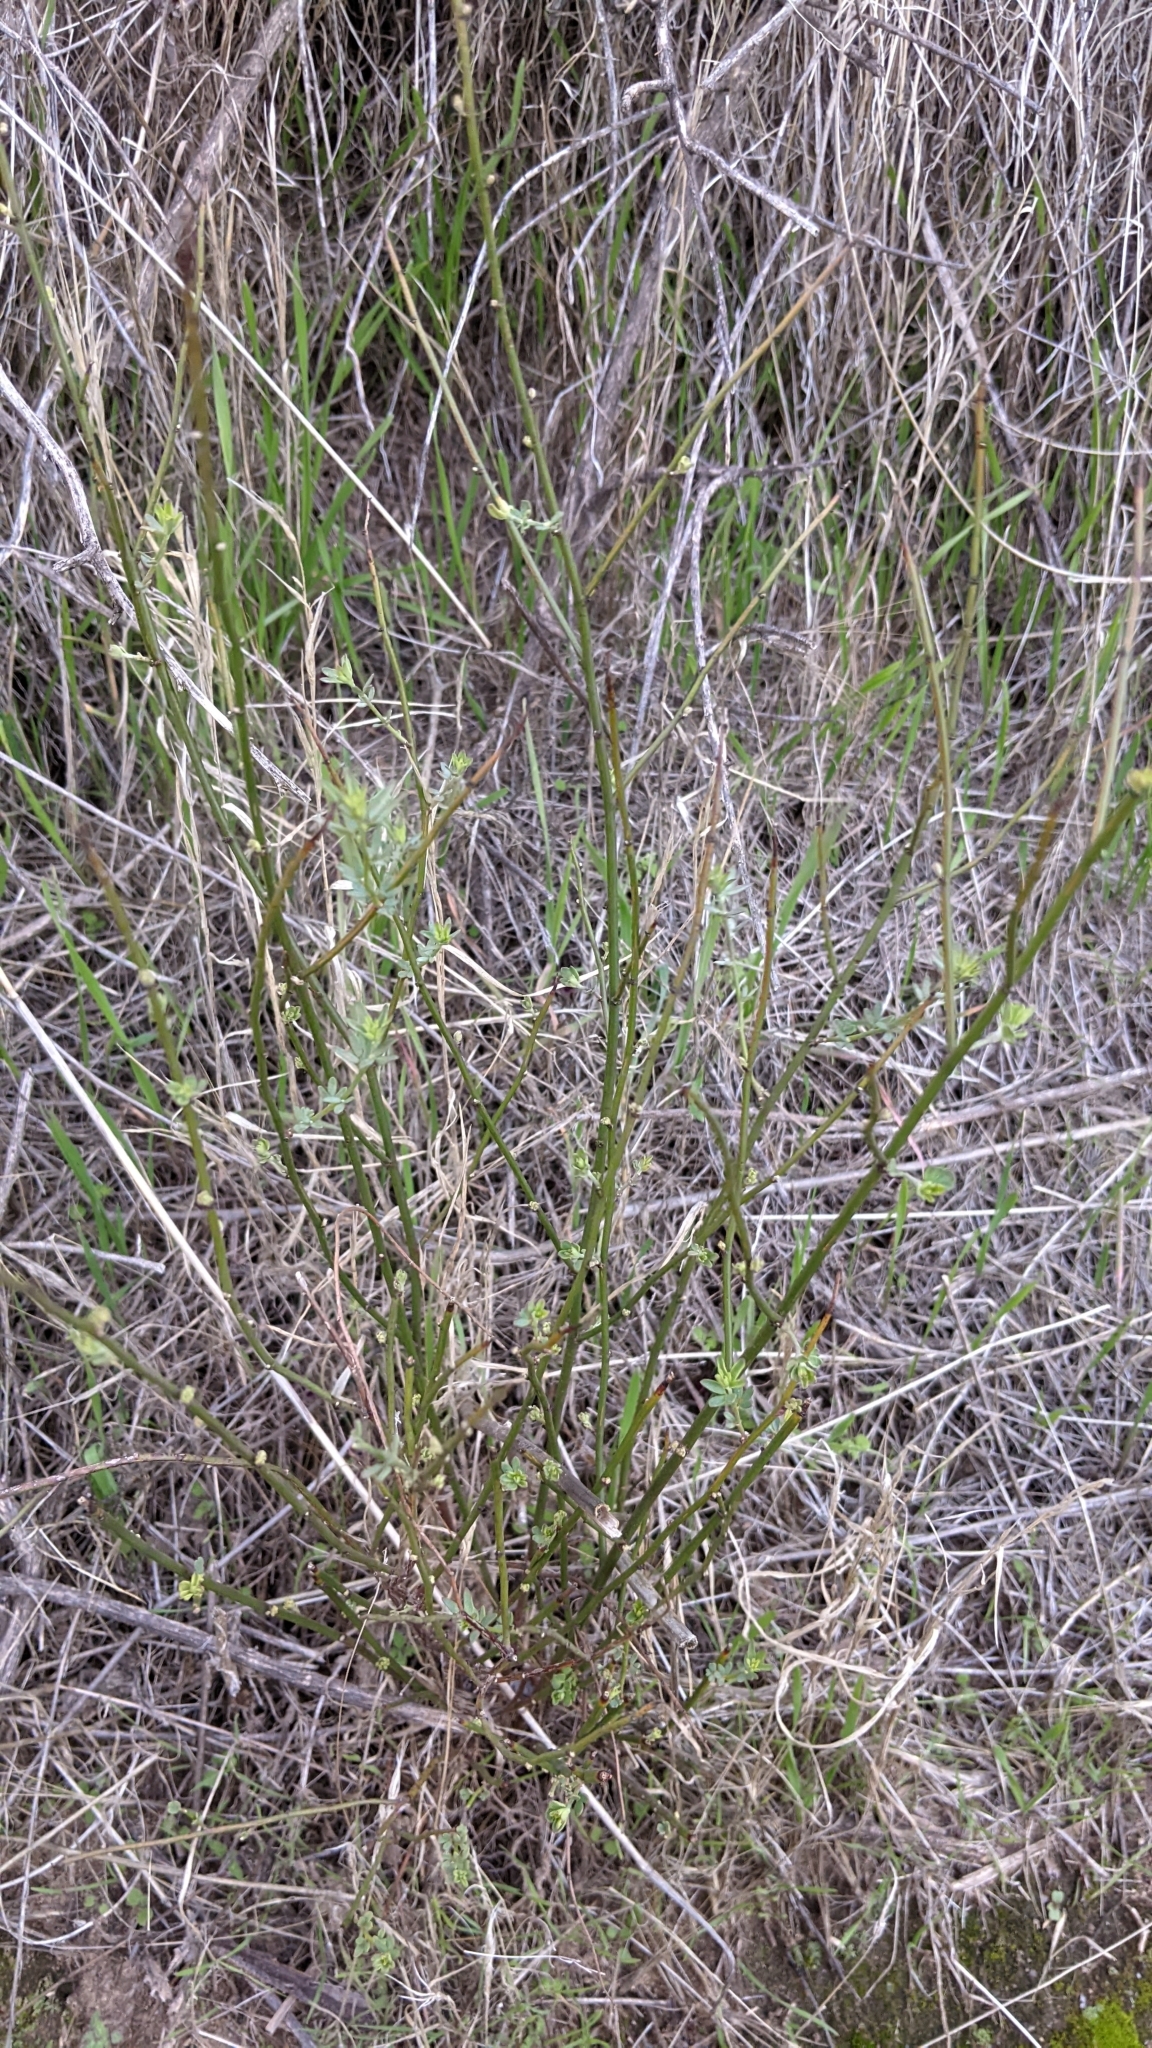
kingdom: Plantae
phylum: Tracheophyta
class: Magnoliopsida
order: Fabales
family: Fabaceae
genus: Acmispon
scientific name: Acmispon glaber
